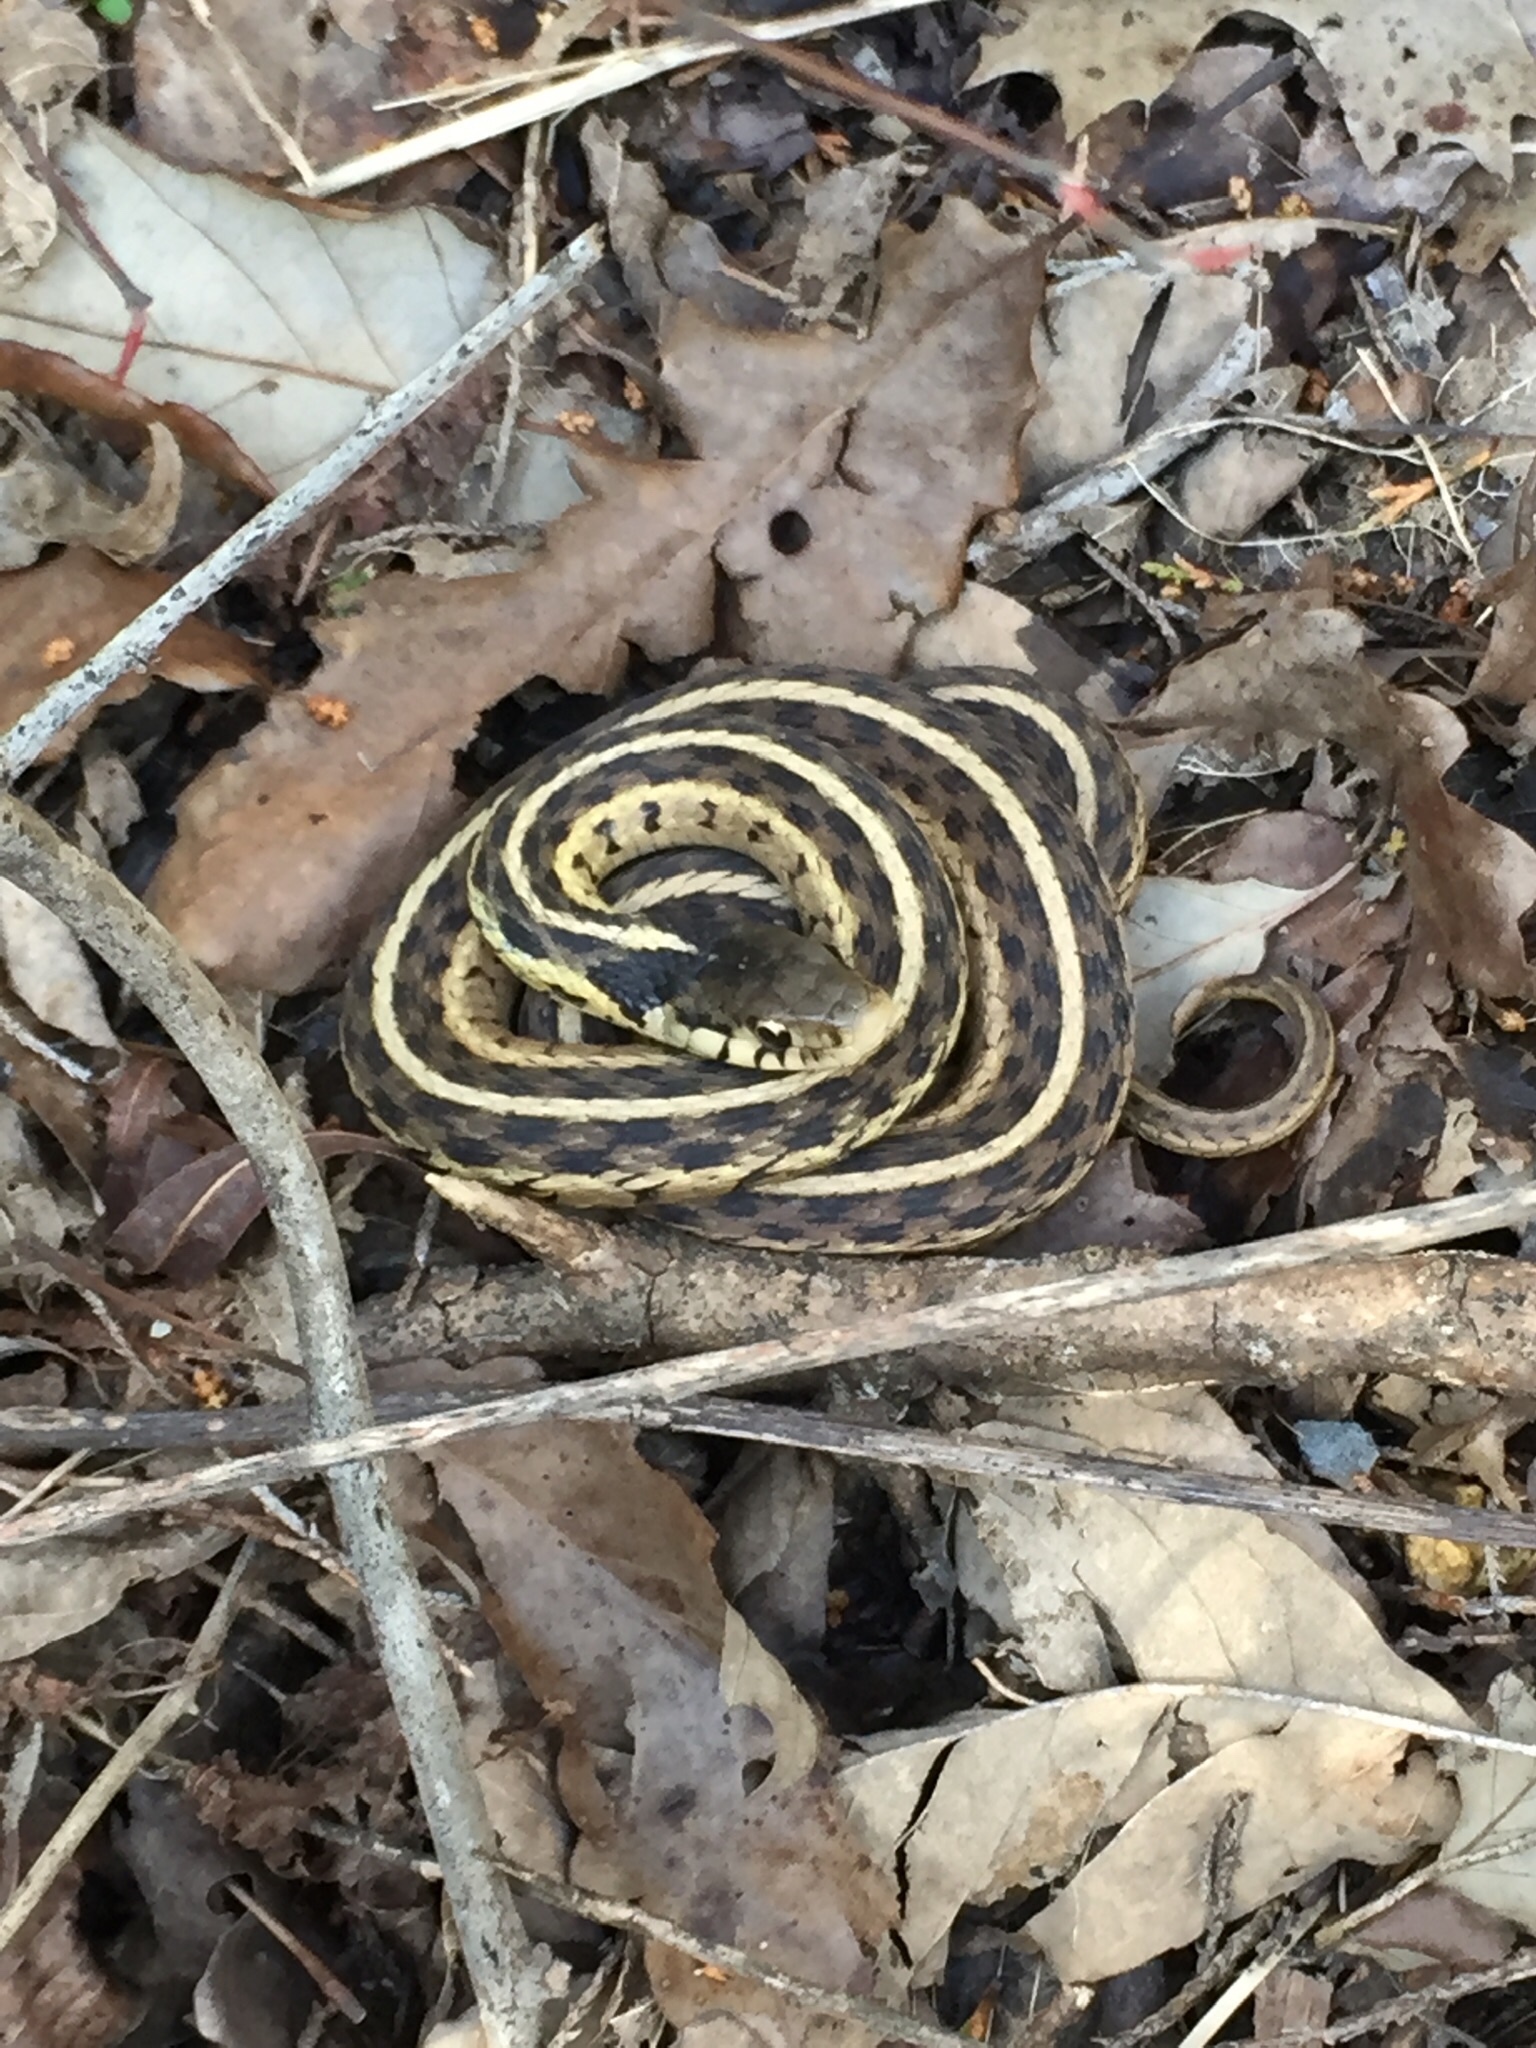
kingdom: Animalia
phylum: Chordata
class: Squamata
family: Colubridae
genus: Thamnophis
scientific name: Thamnophis sirtalis
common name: Common garter snake
